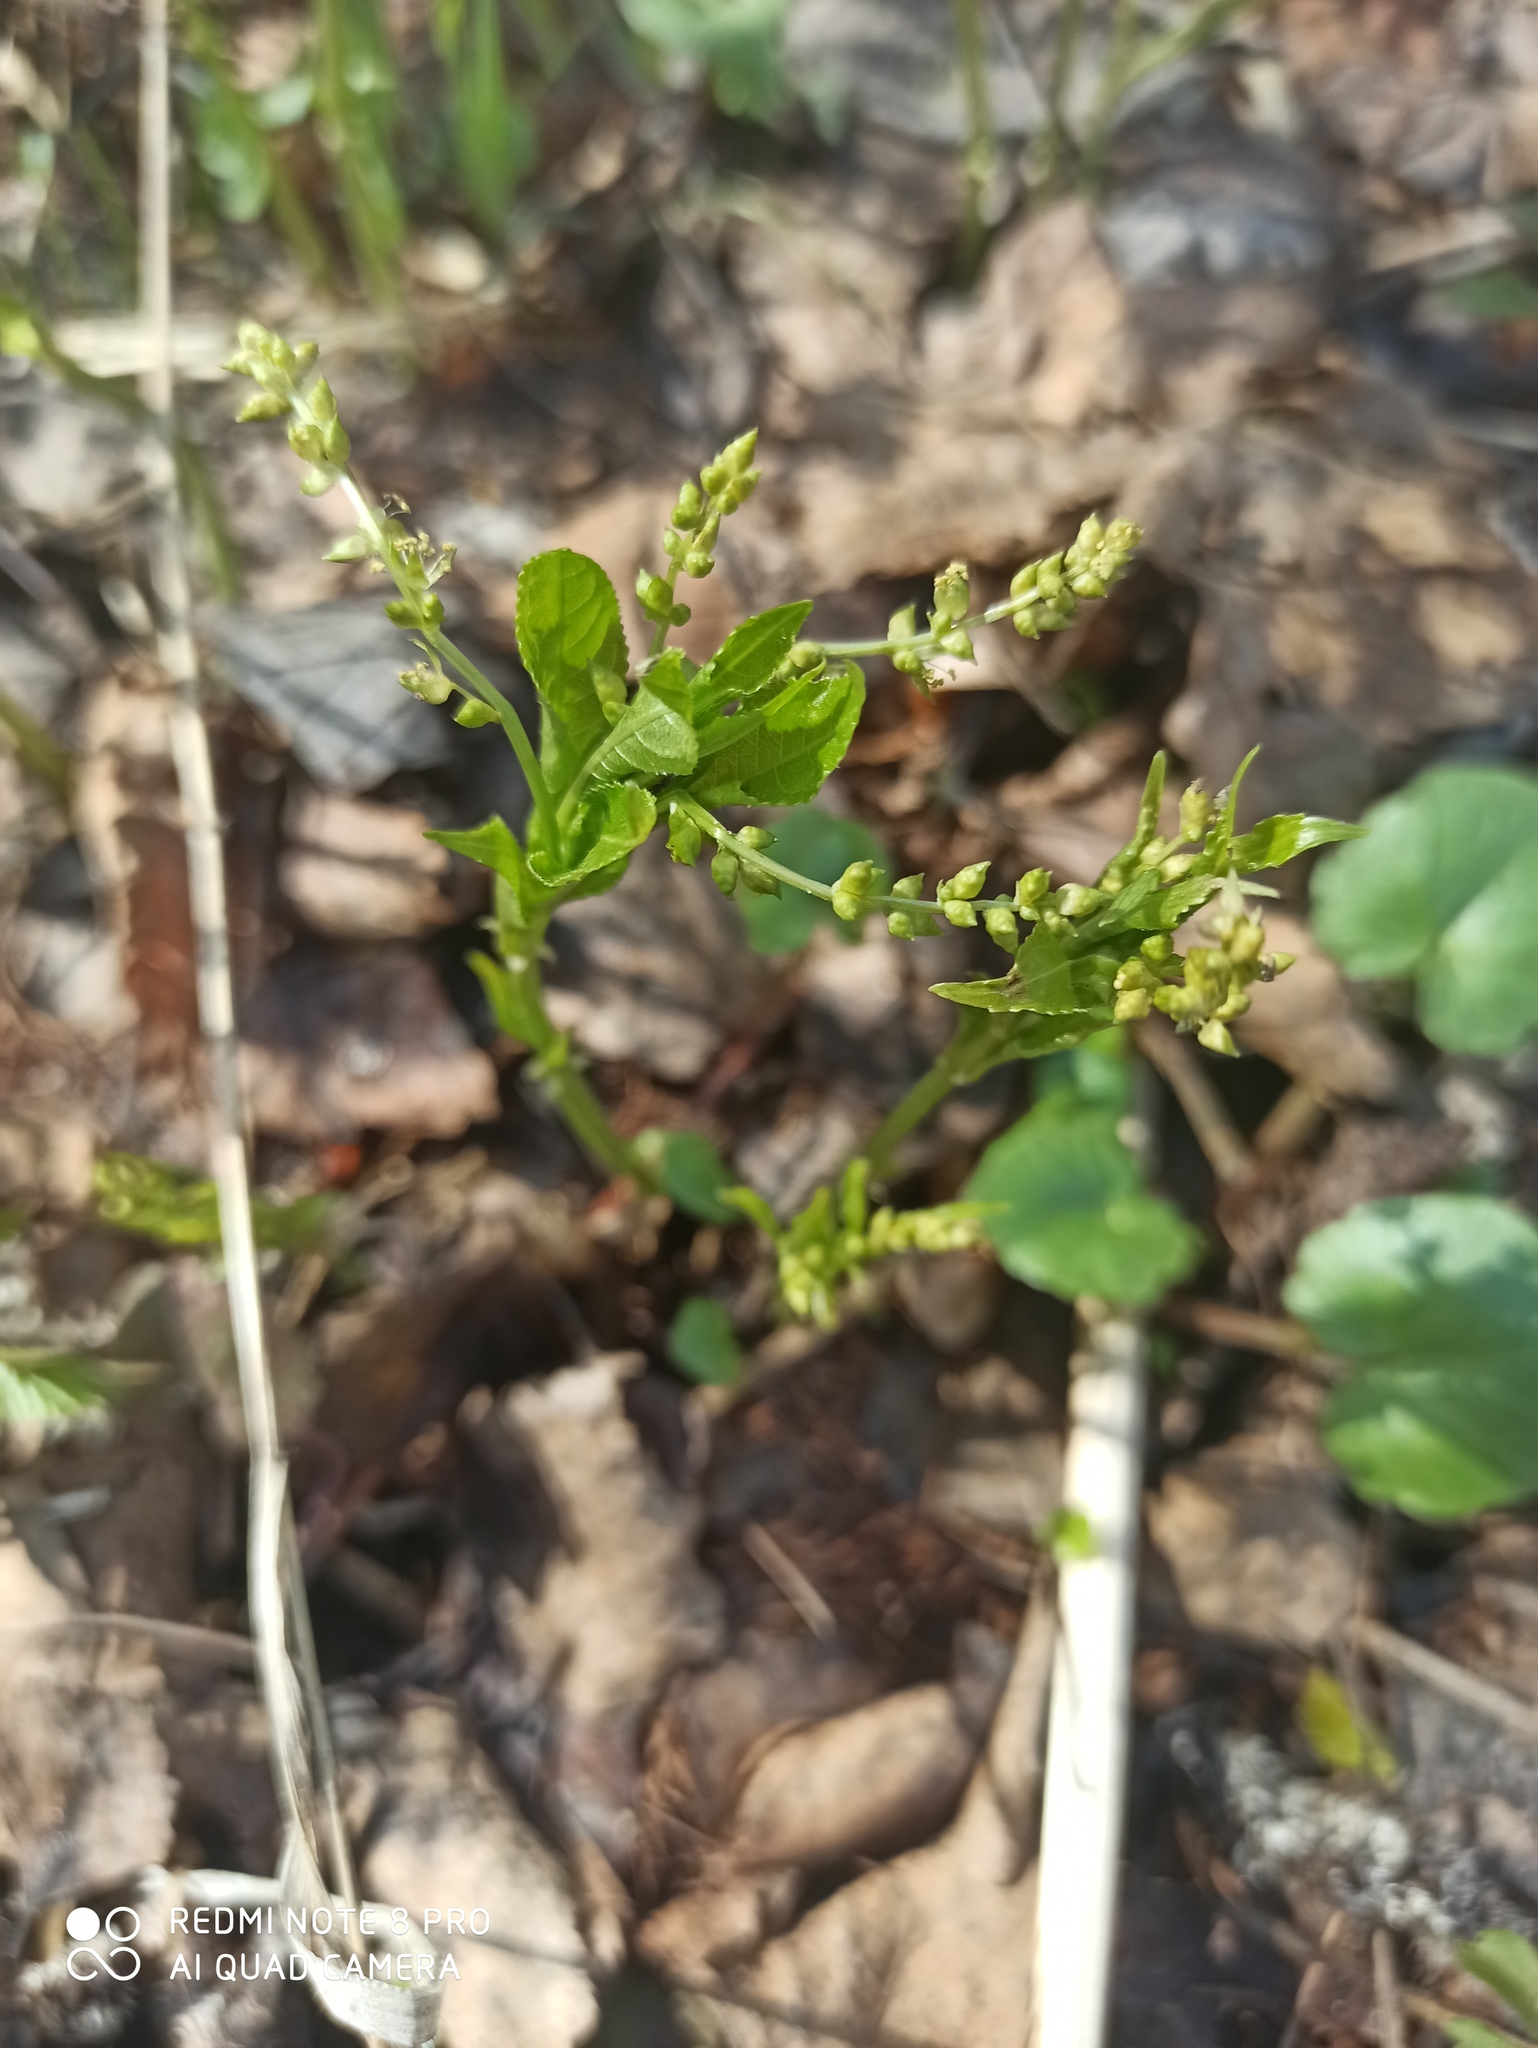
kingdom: Plantae
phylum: Tracheophyta
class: Magnoliopsida
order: Malpighiales
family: Euphorbiaceae
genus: Mercurialis
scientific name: Mercurialis perennis
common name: Dog mercury
